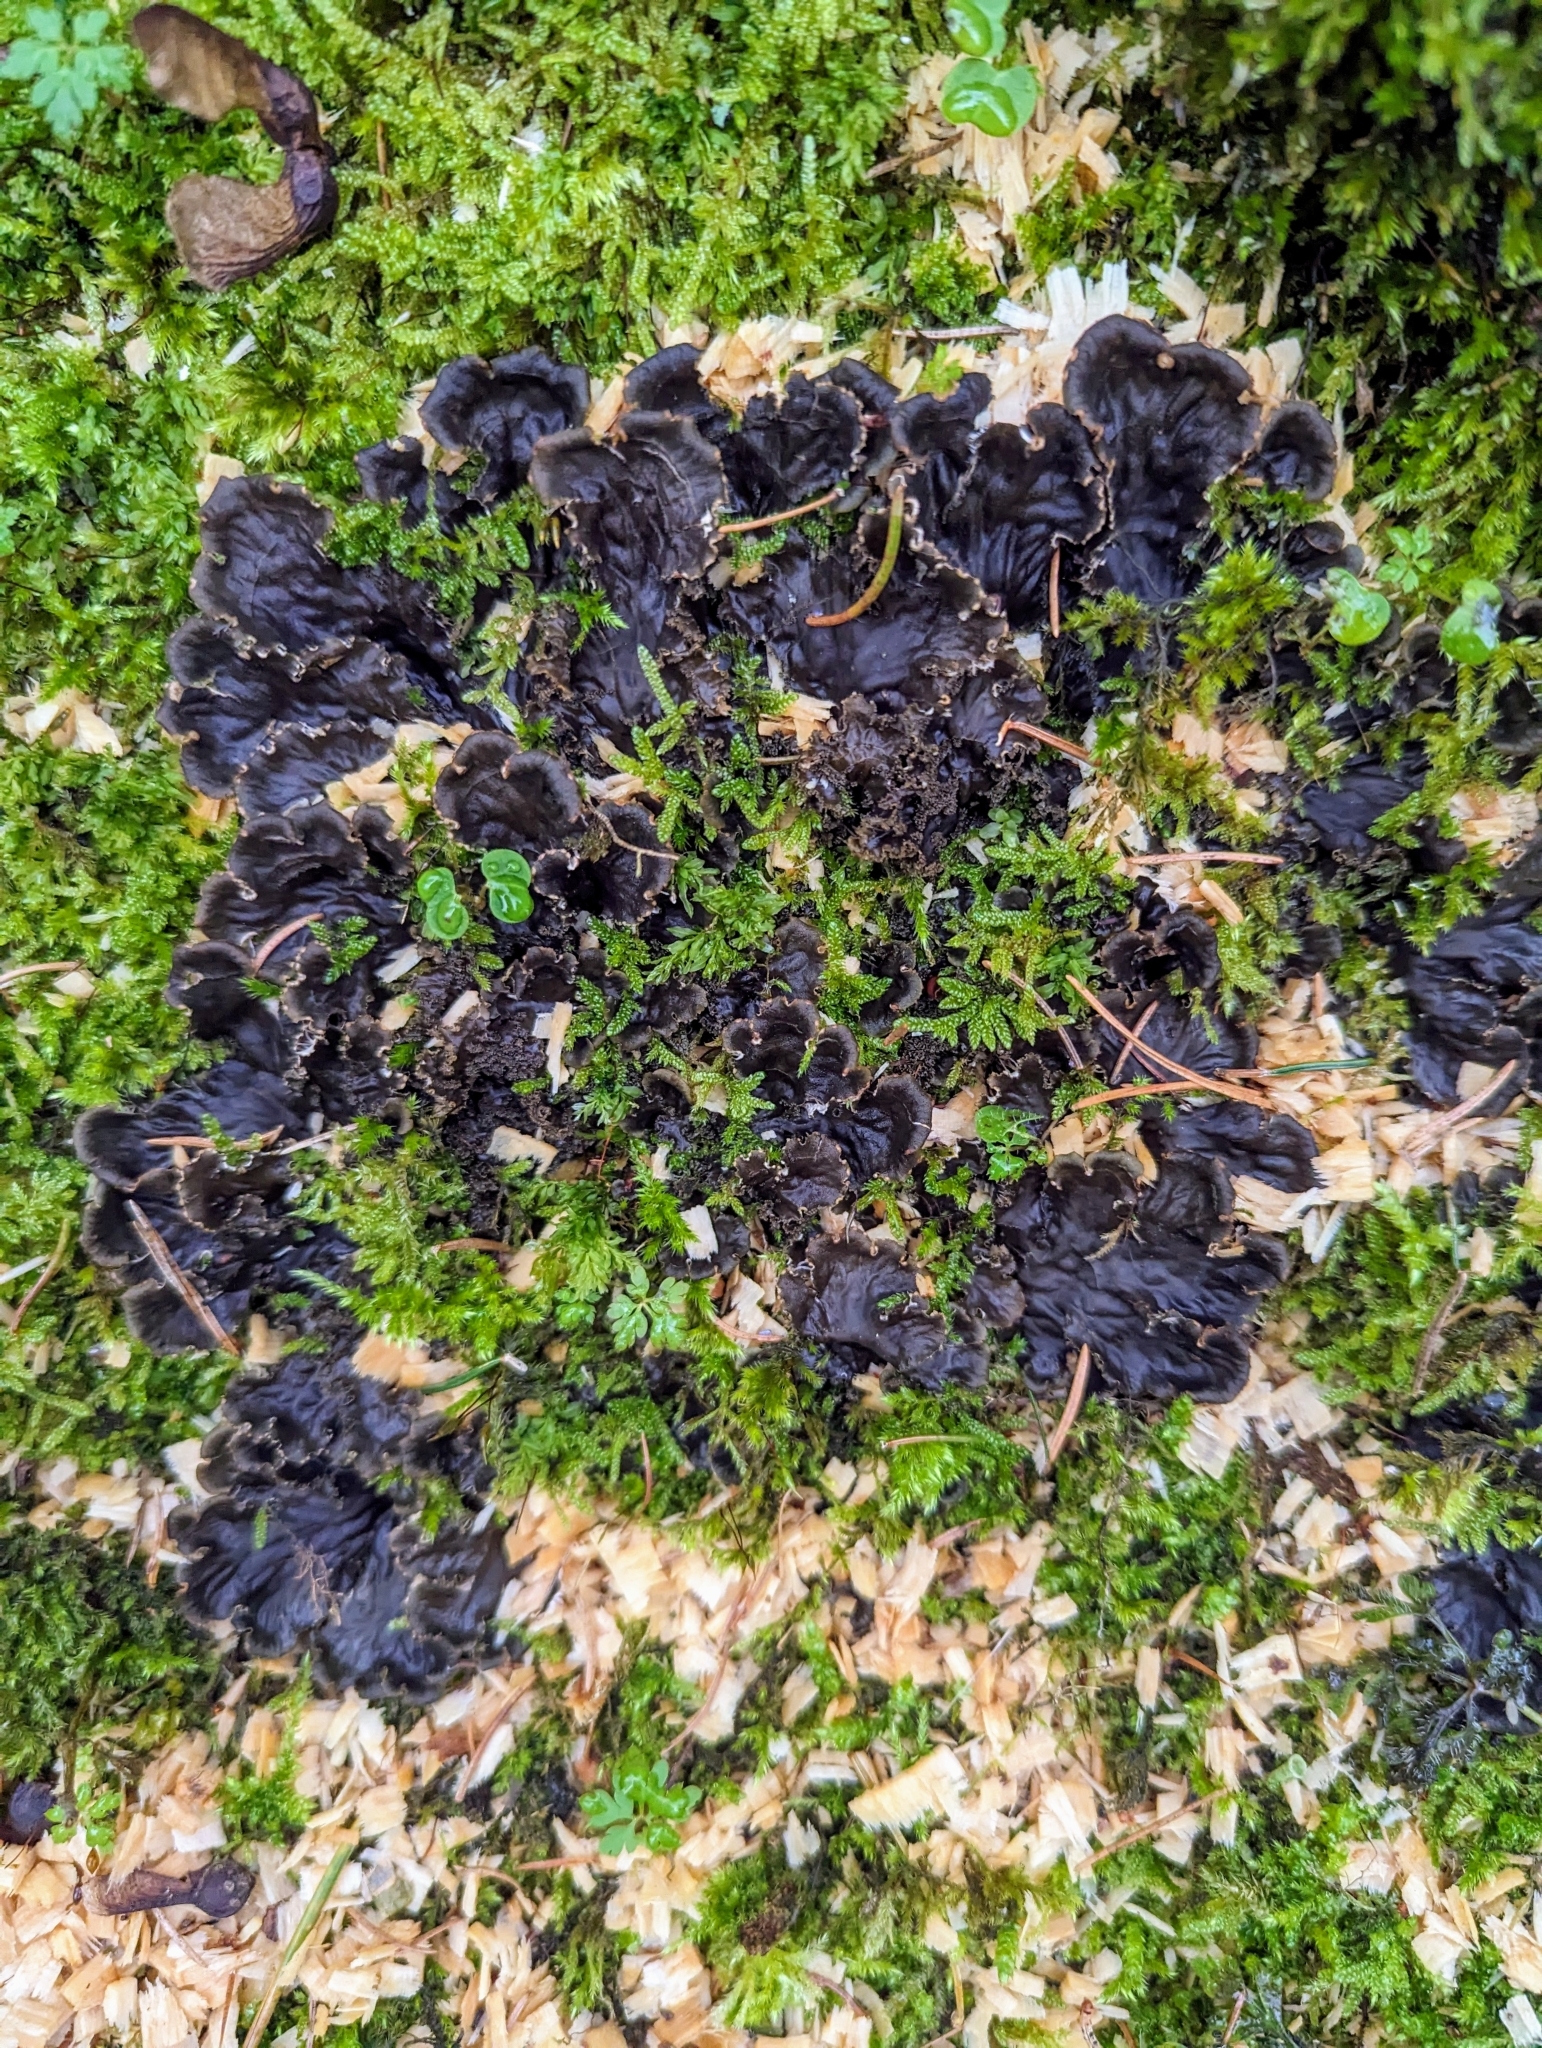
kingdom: Fungi
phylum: Ascomycota
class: Lecanoromycetes
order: Peltigerales
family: Peltigeraceae
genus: Peltigera
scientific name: Peltigera praetextata
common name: Scaly dog-lichen
